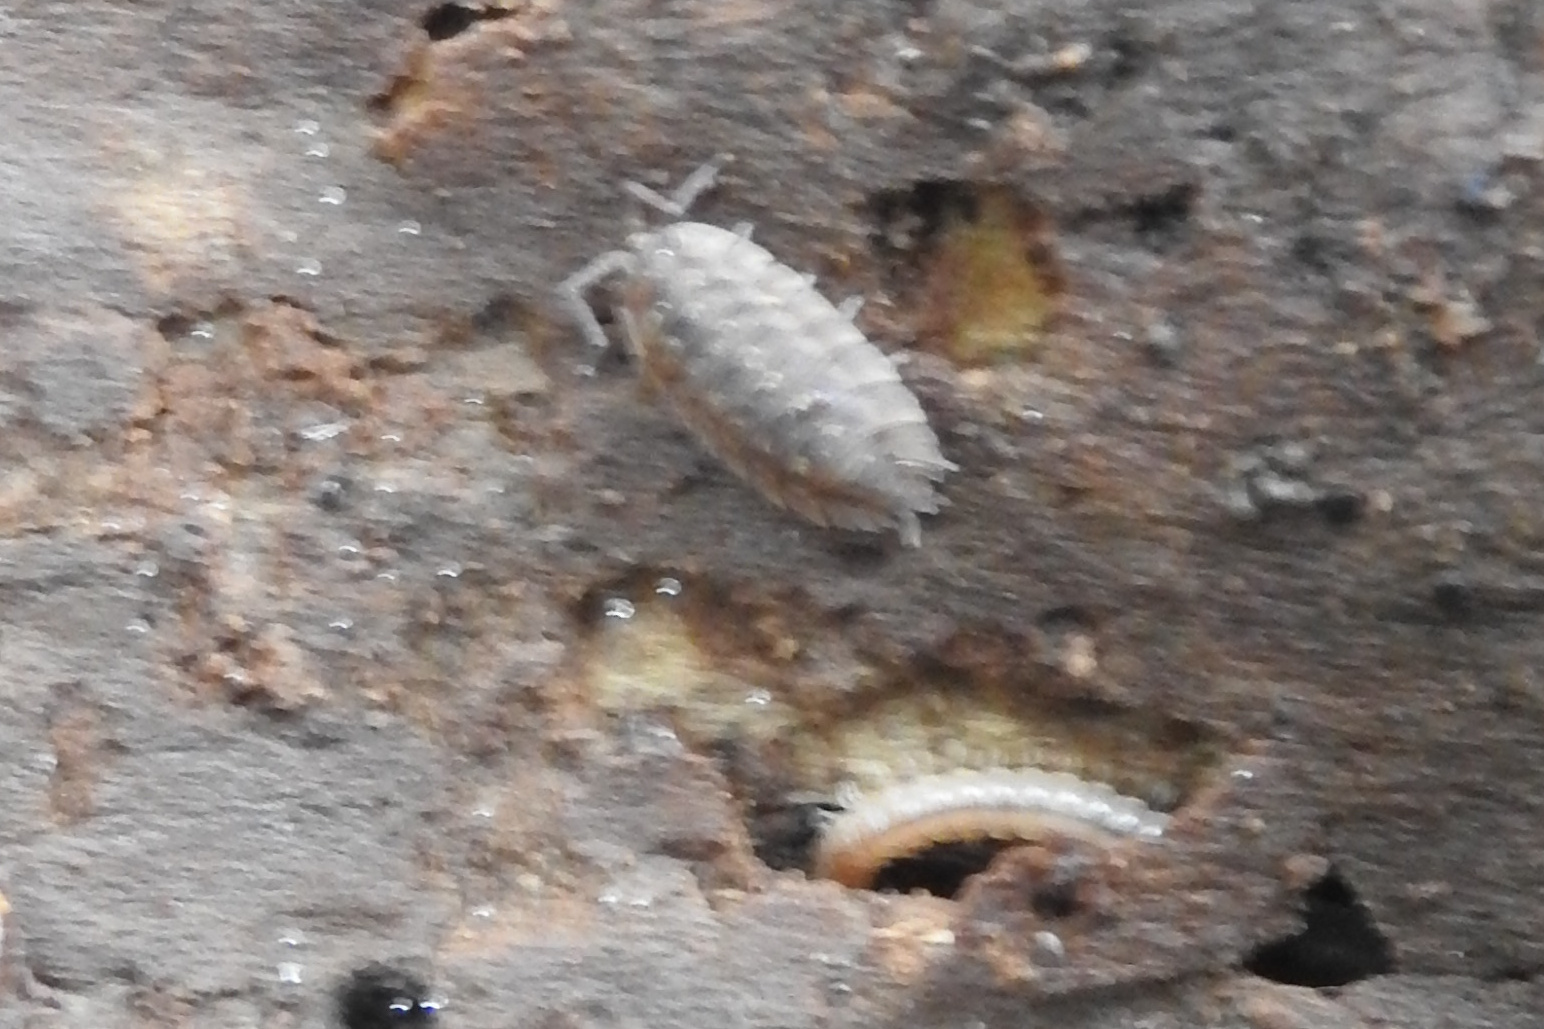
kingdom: Animalia
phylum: Arthropoda
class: Malacostraca
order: Isopoda
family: Oniscidae
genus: Oniscus
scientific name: Oniscus asellus
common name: Common shiny woodlouse
